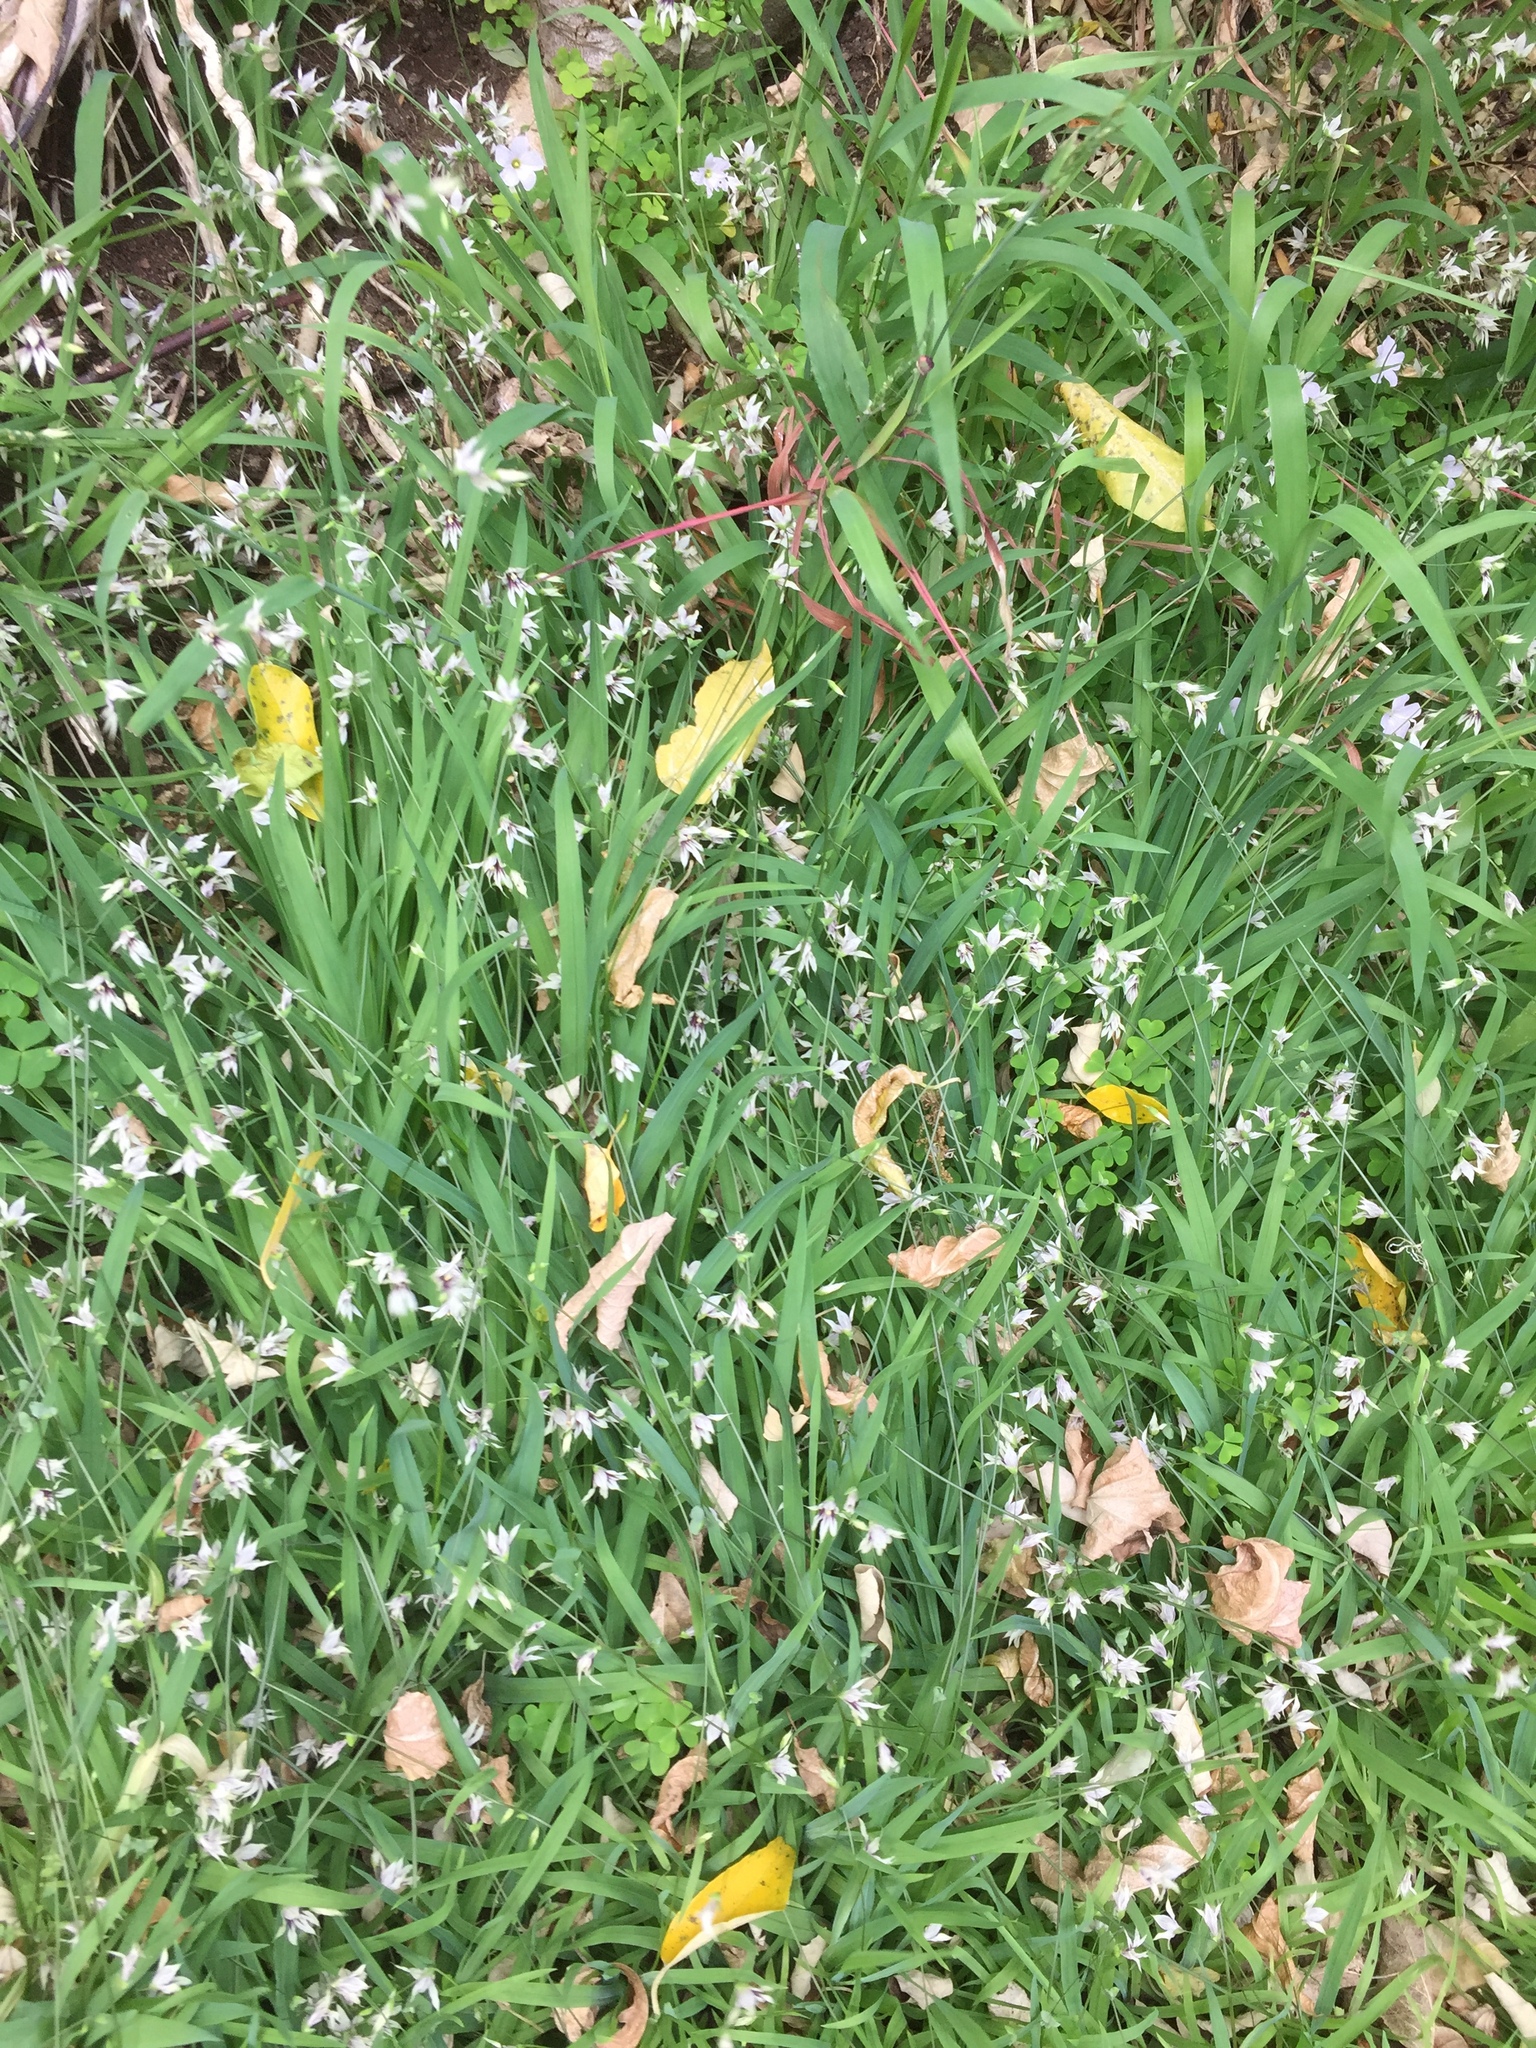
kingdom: Plantae
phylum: Tracheophyta
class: Liliopsida
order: Asparagales
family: Iridaceae
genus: Melasphaerula
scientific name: Melasphaerula graminea
